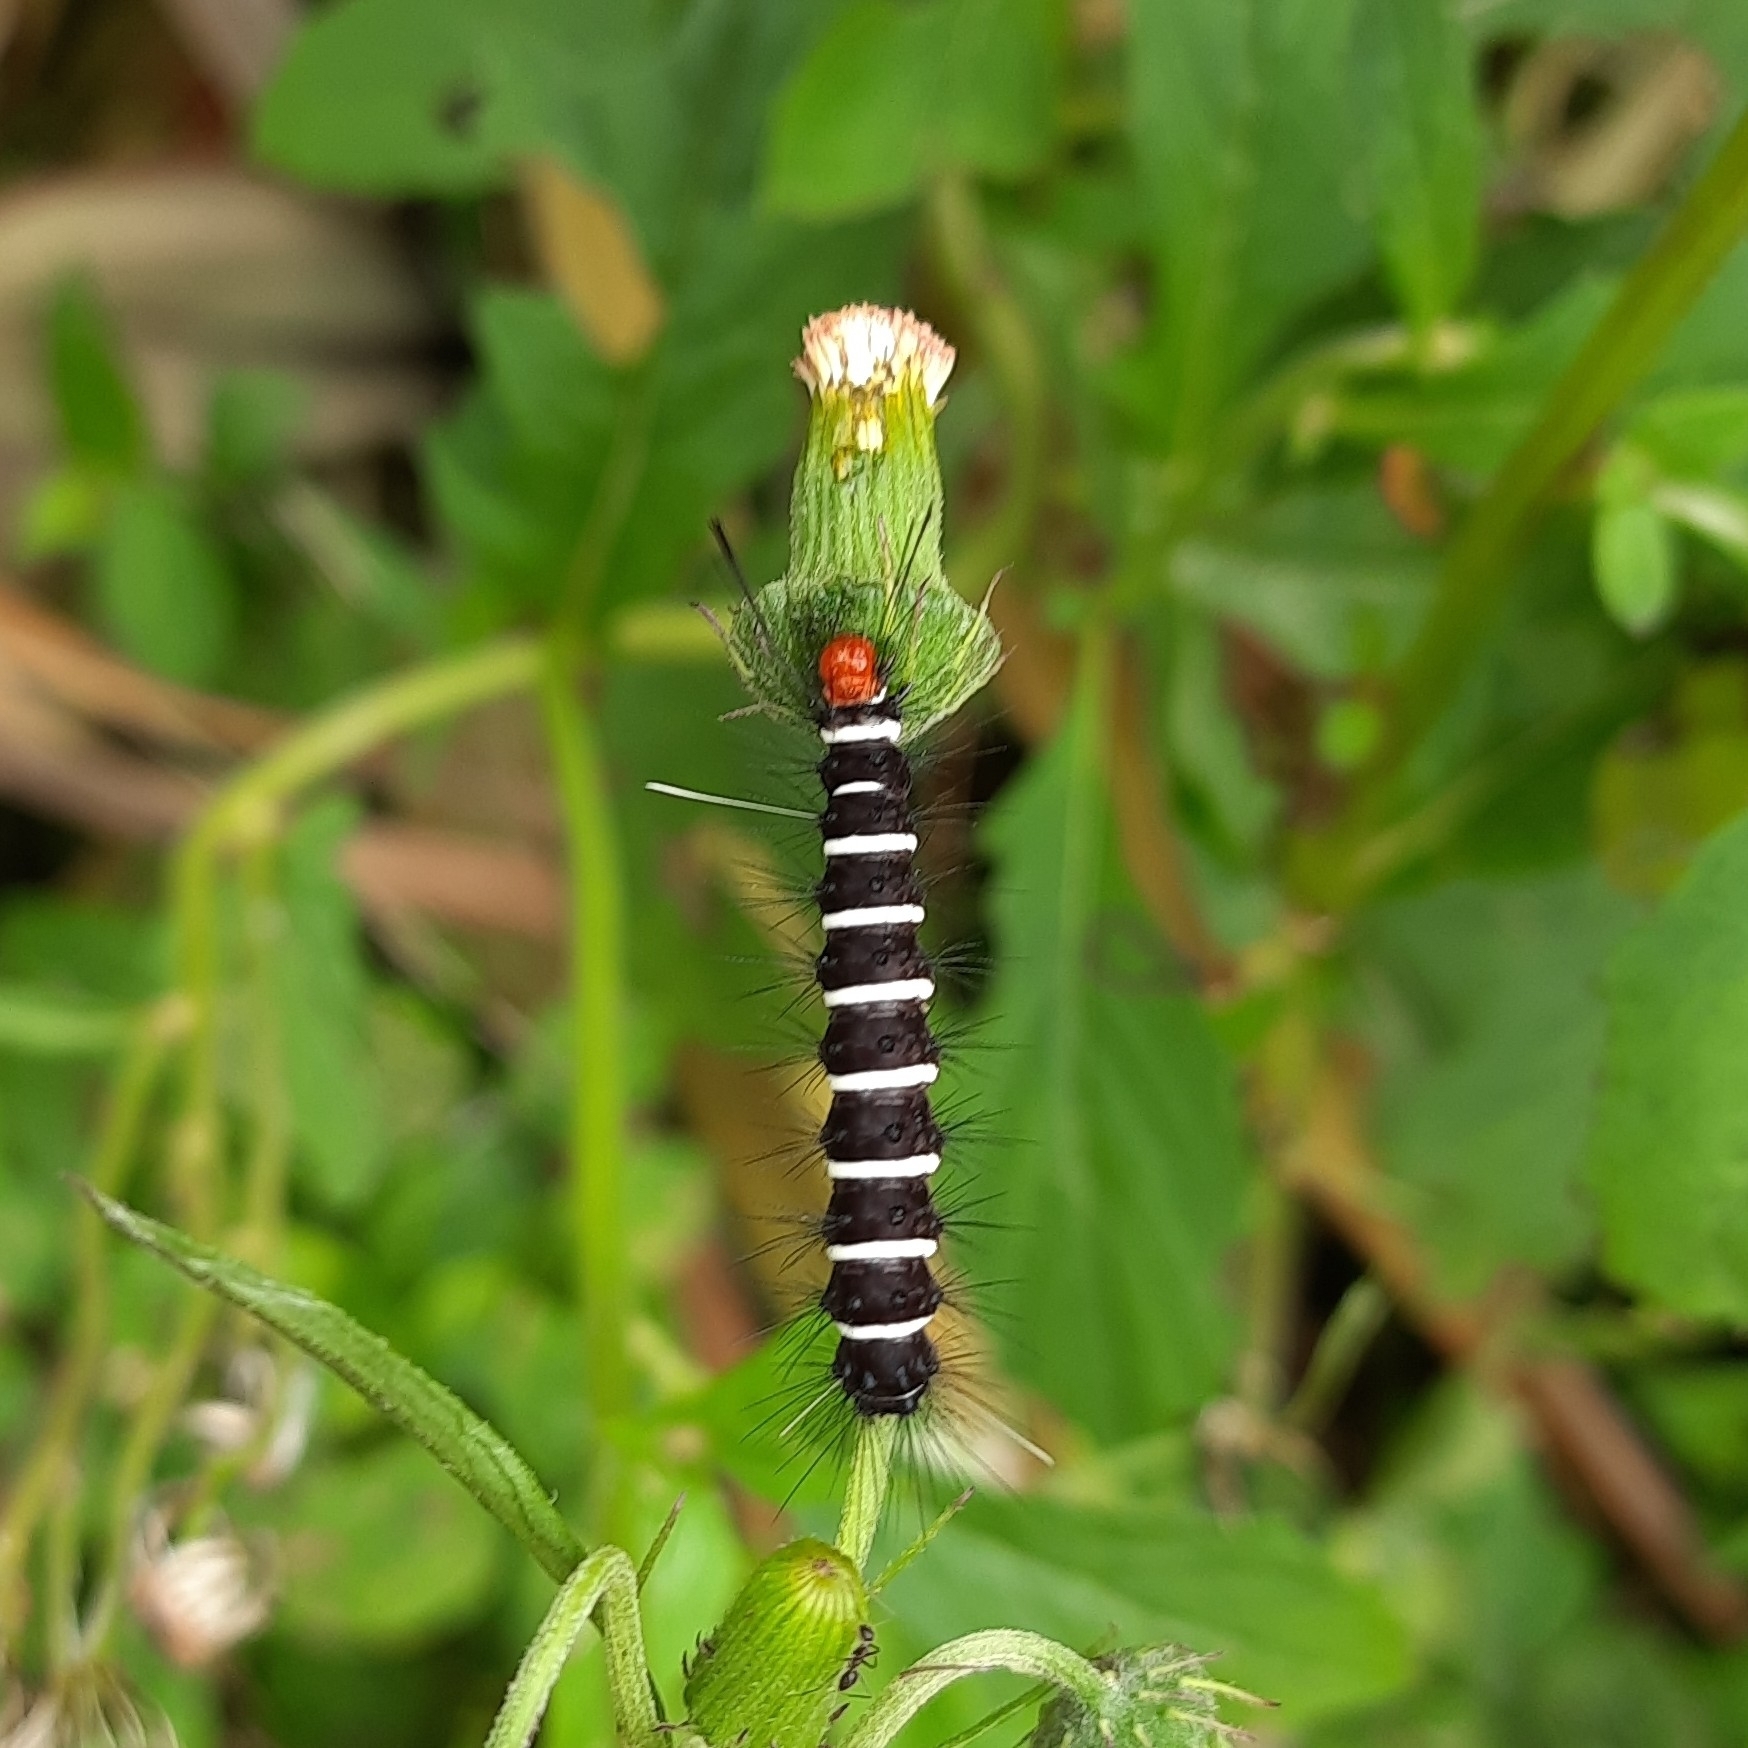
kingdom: Animalia
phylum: Arthropoda
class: Insecta
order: Lepidoptera
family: Erebidae
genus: Nyctemera
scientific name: Nyctemera coleta
